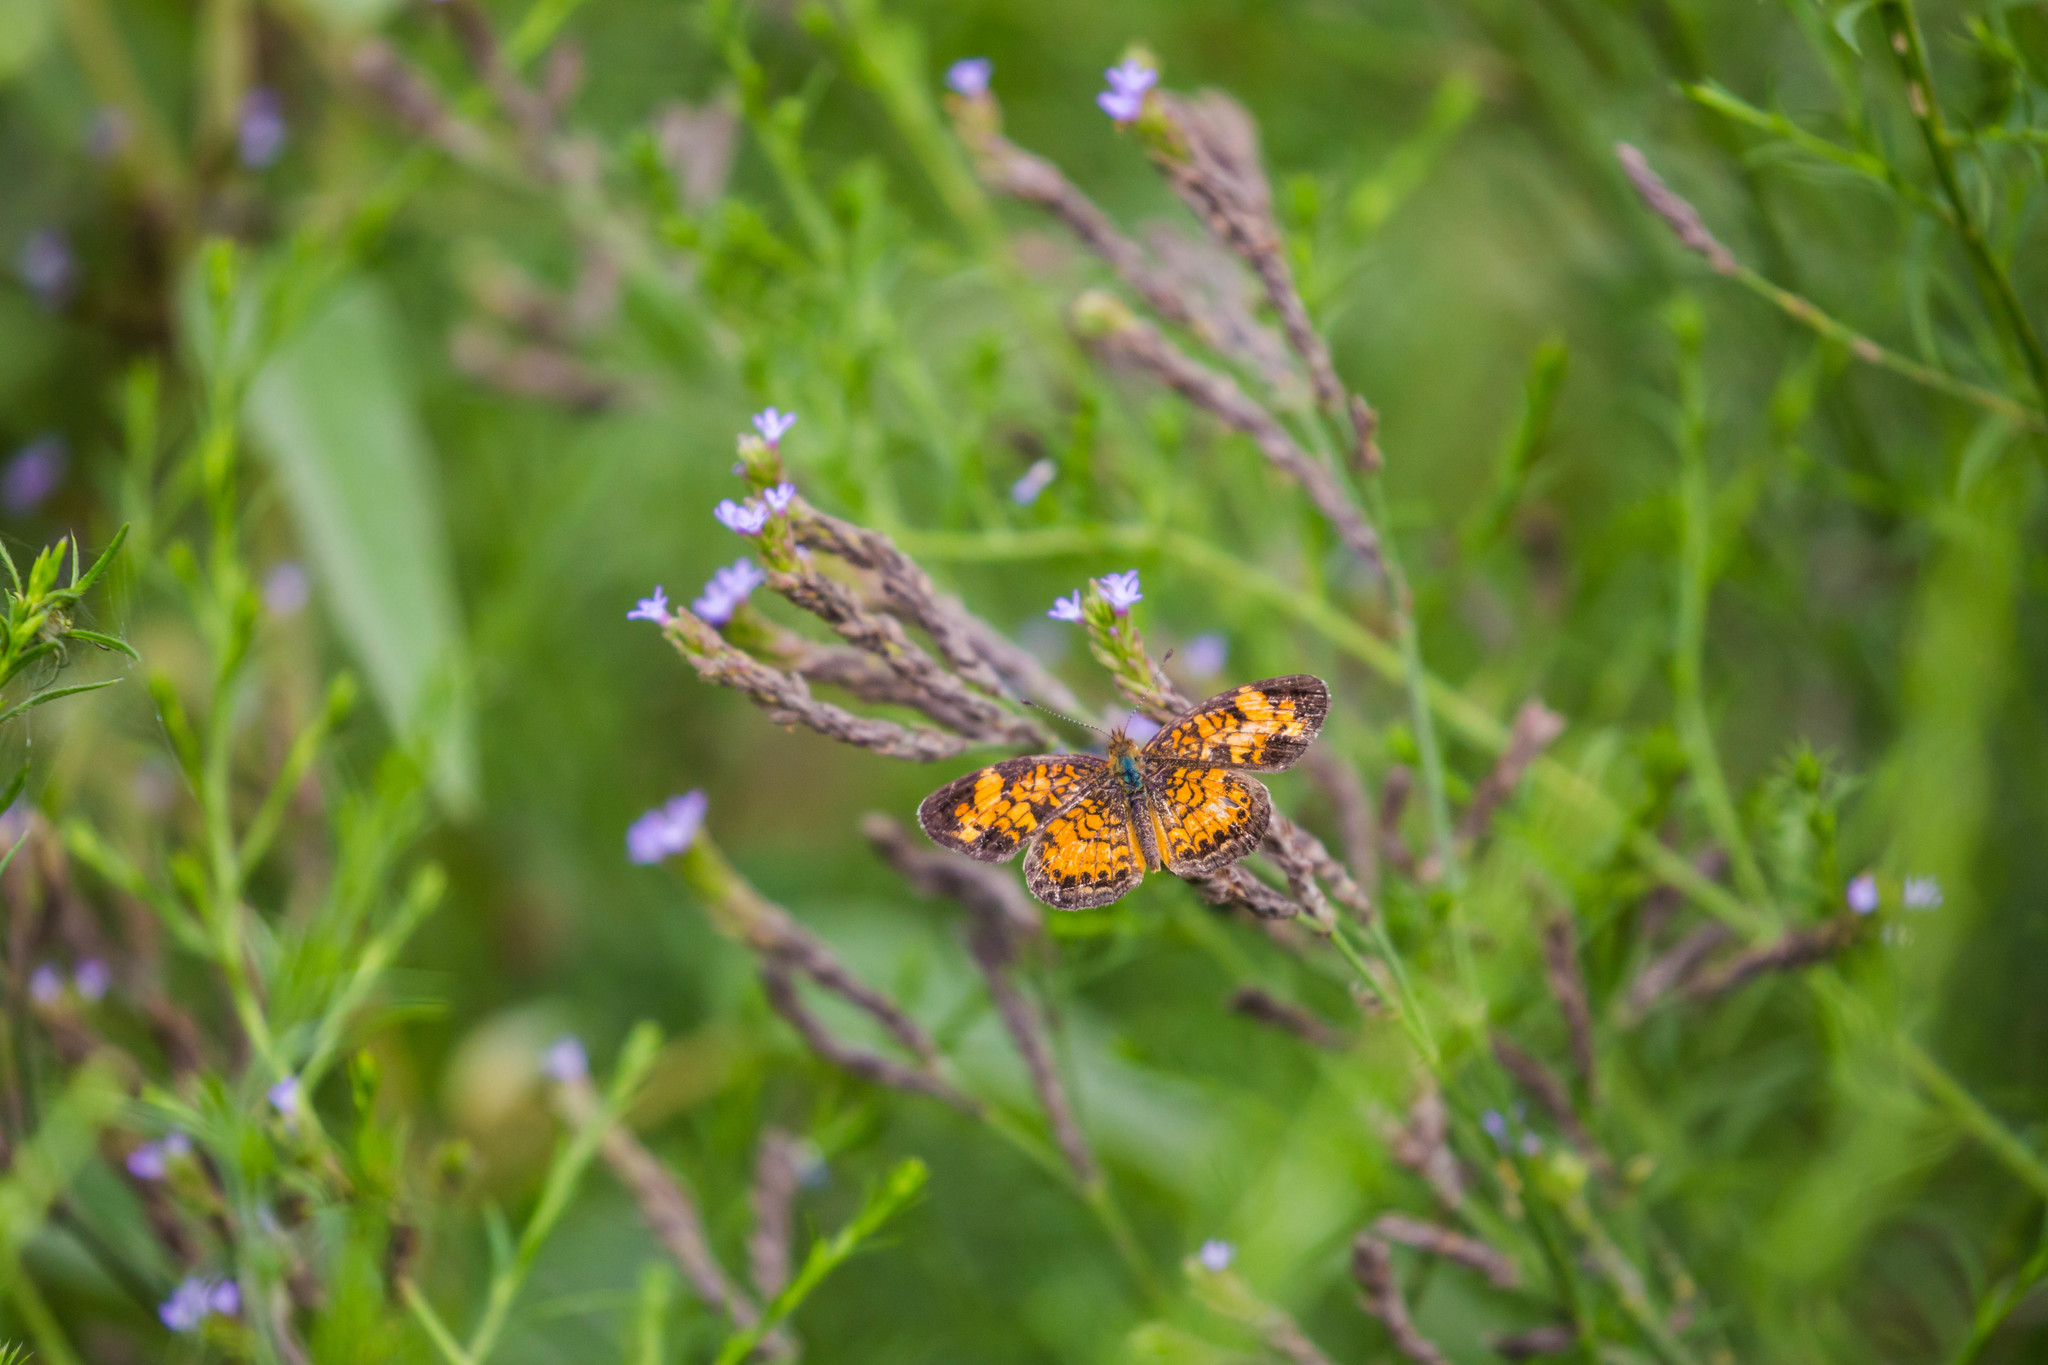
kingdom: Animalia
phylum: Arthropoda
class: Insecta
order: Lepidoptera
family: Nymphalidae
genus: Phyciodes
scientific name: Phyciodes tharos
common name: Pearl crescent
